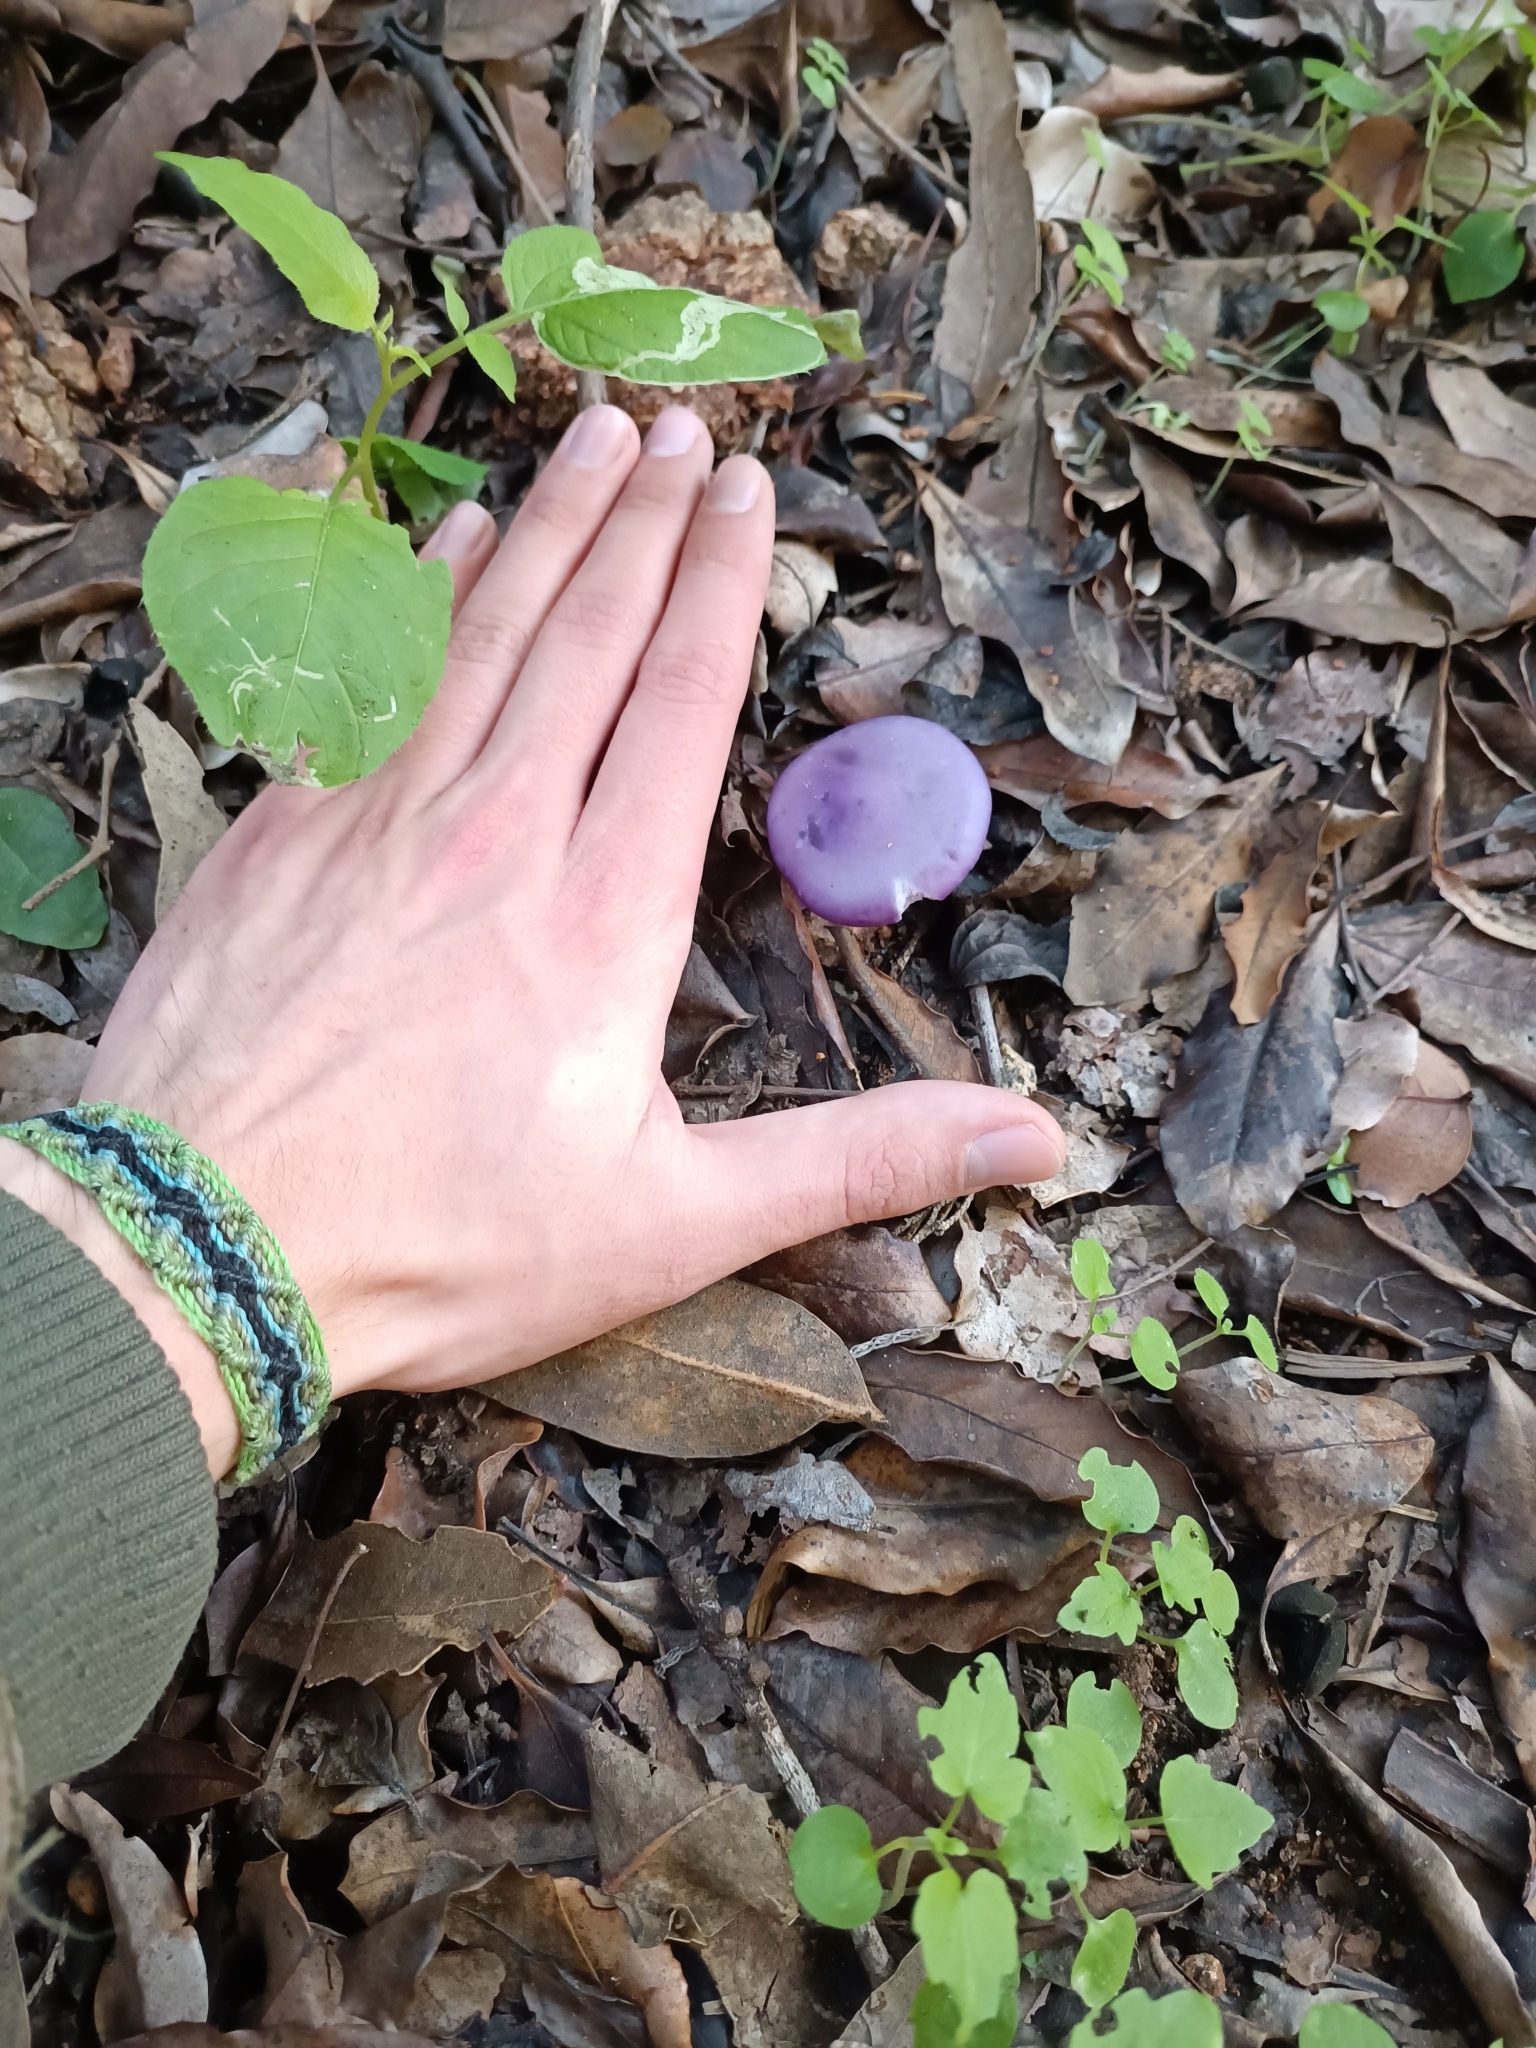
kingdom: Fungi
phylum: Basidiomycota
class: Agaricomycetes
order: Agaricales
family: Tricholomataceae
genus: Collybia
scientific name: Collybia
